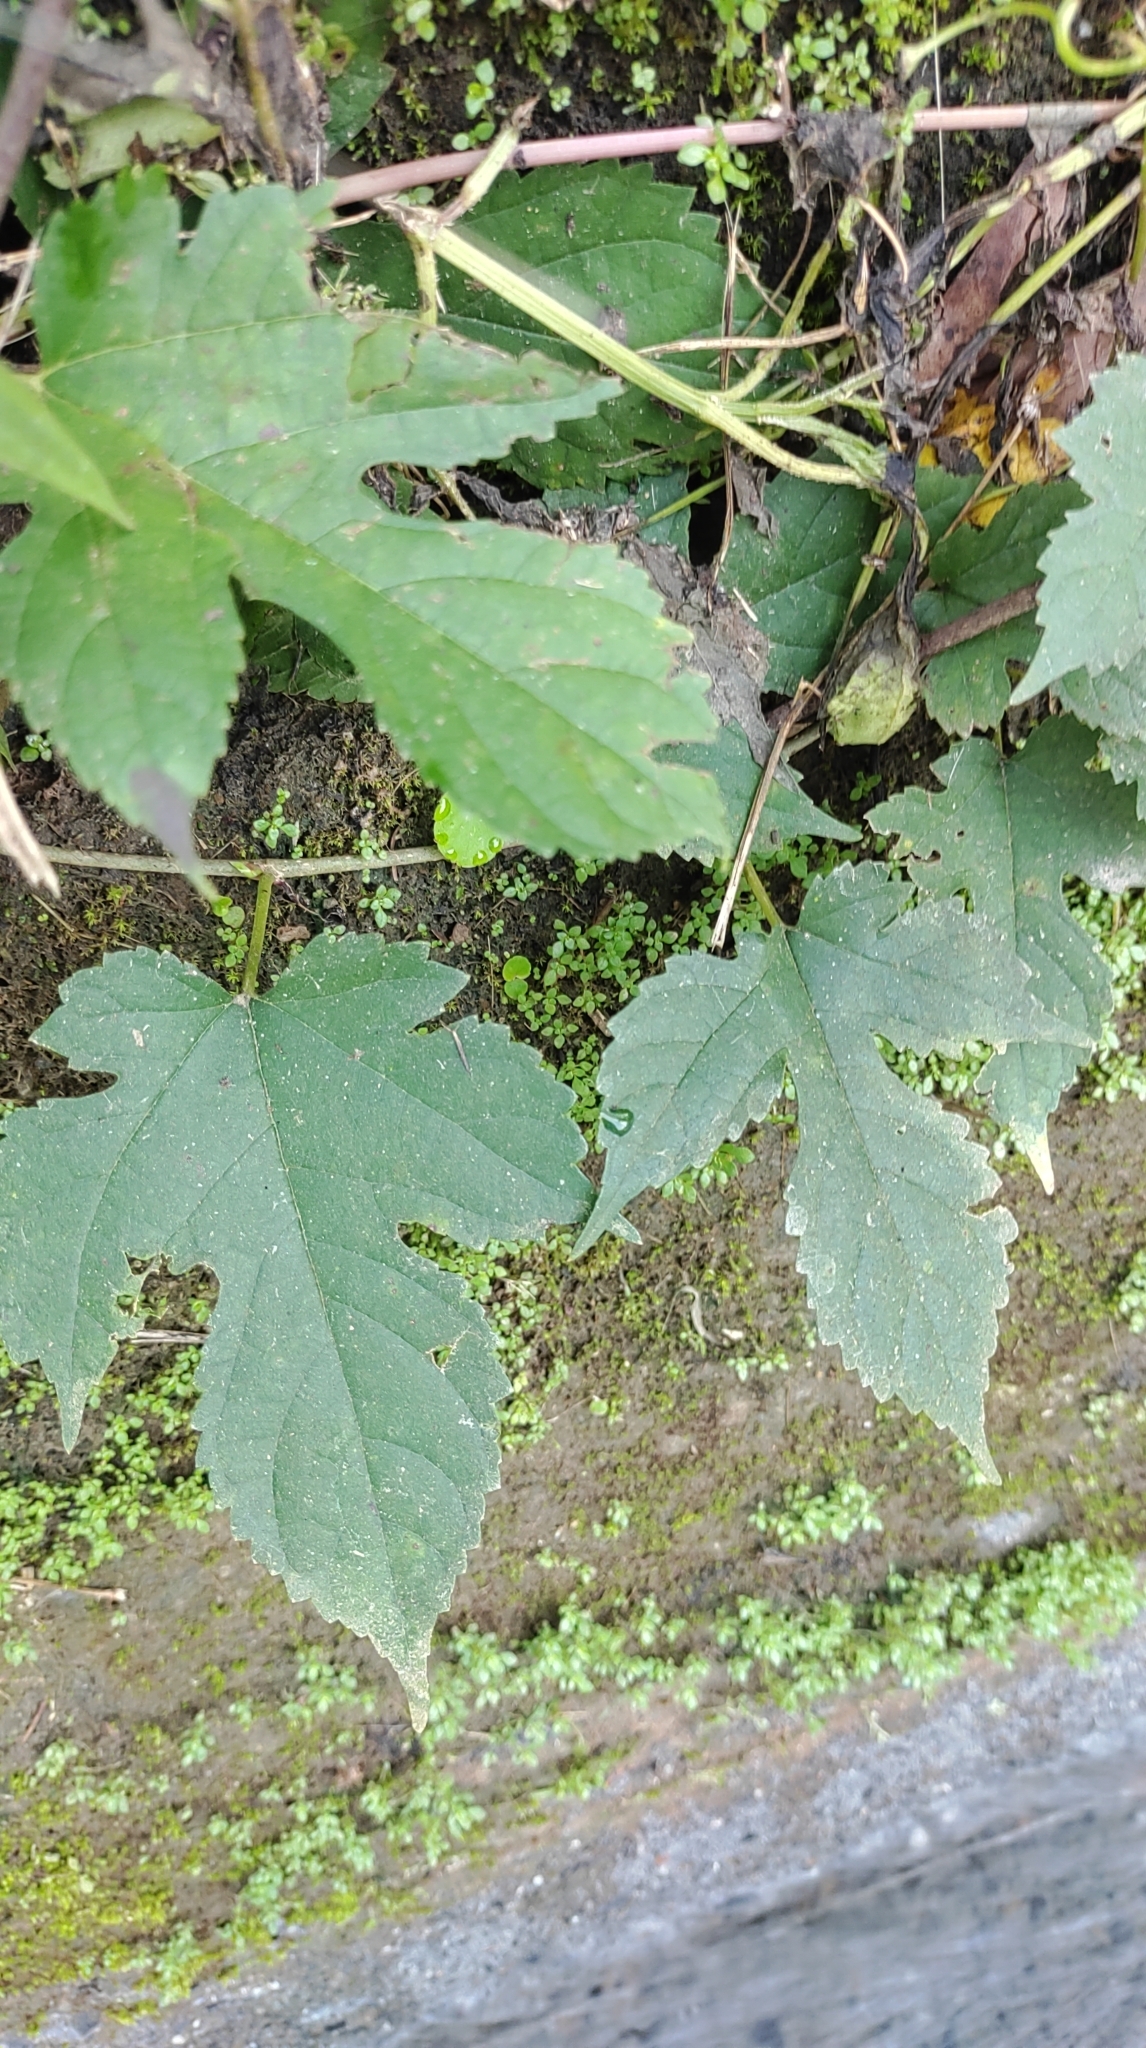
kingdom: Plantae
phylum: Tracheophyta
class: Magnoliopsida
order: Rosales
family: Moraceae
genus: Morus
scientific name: Morus indica
